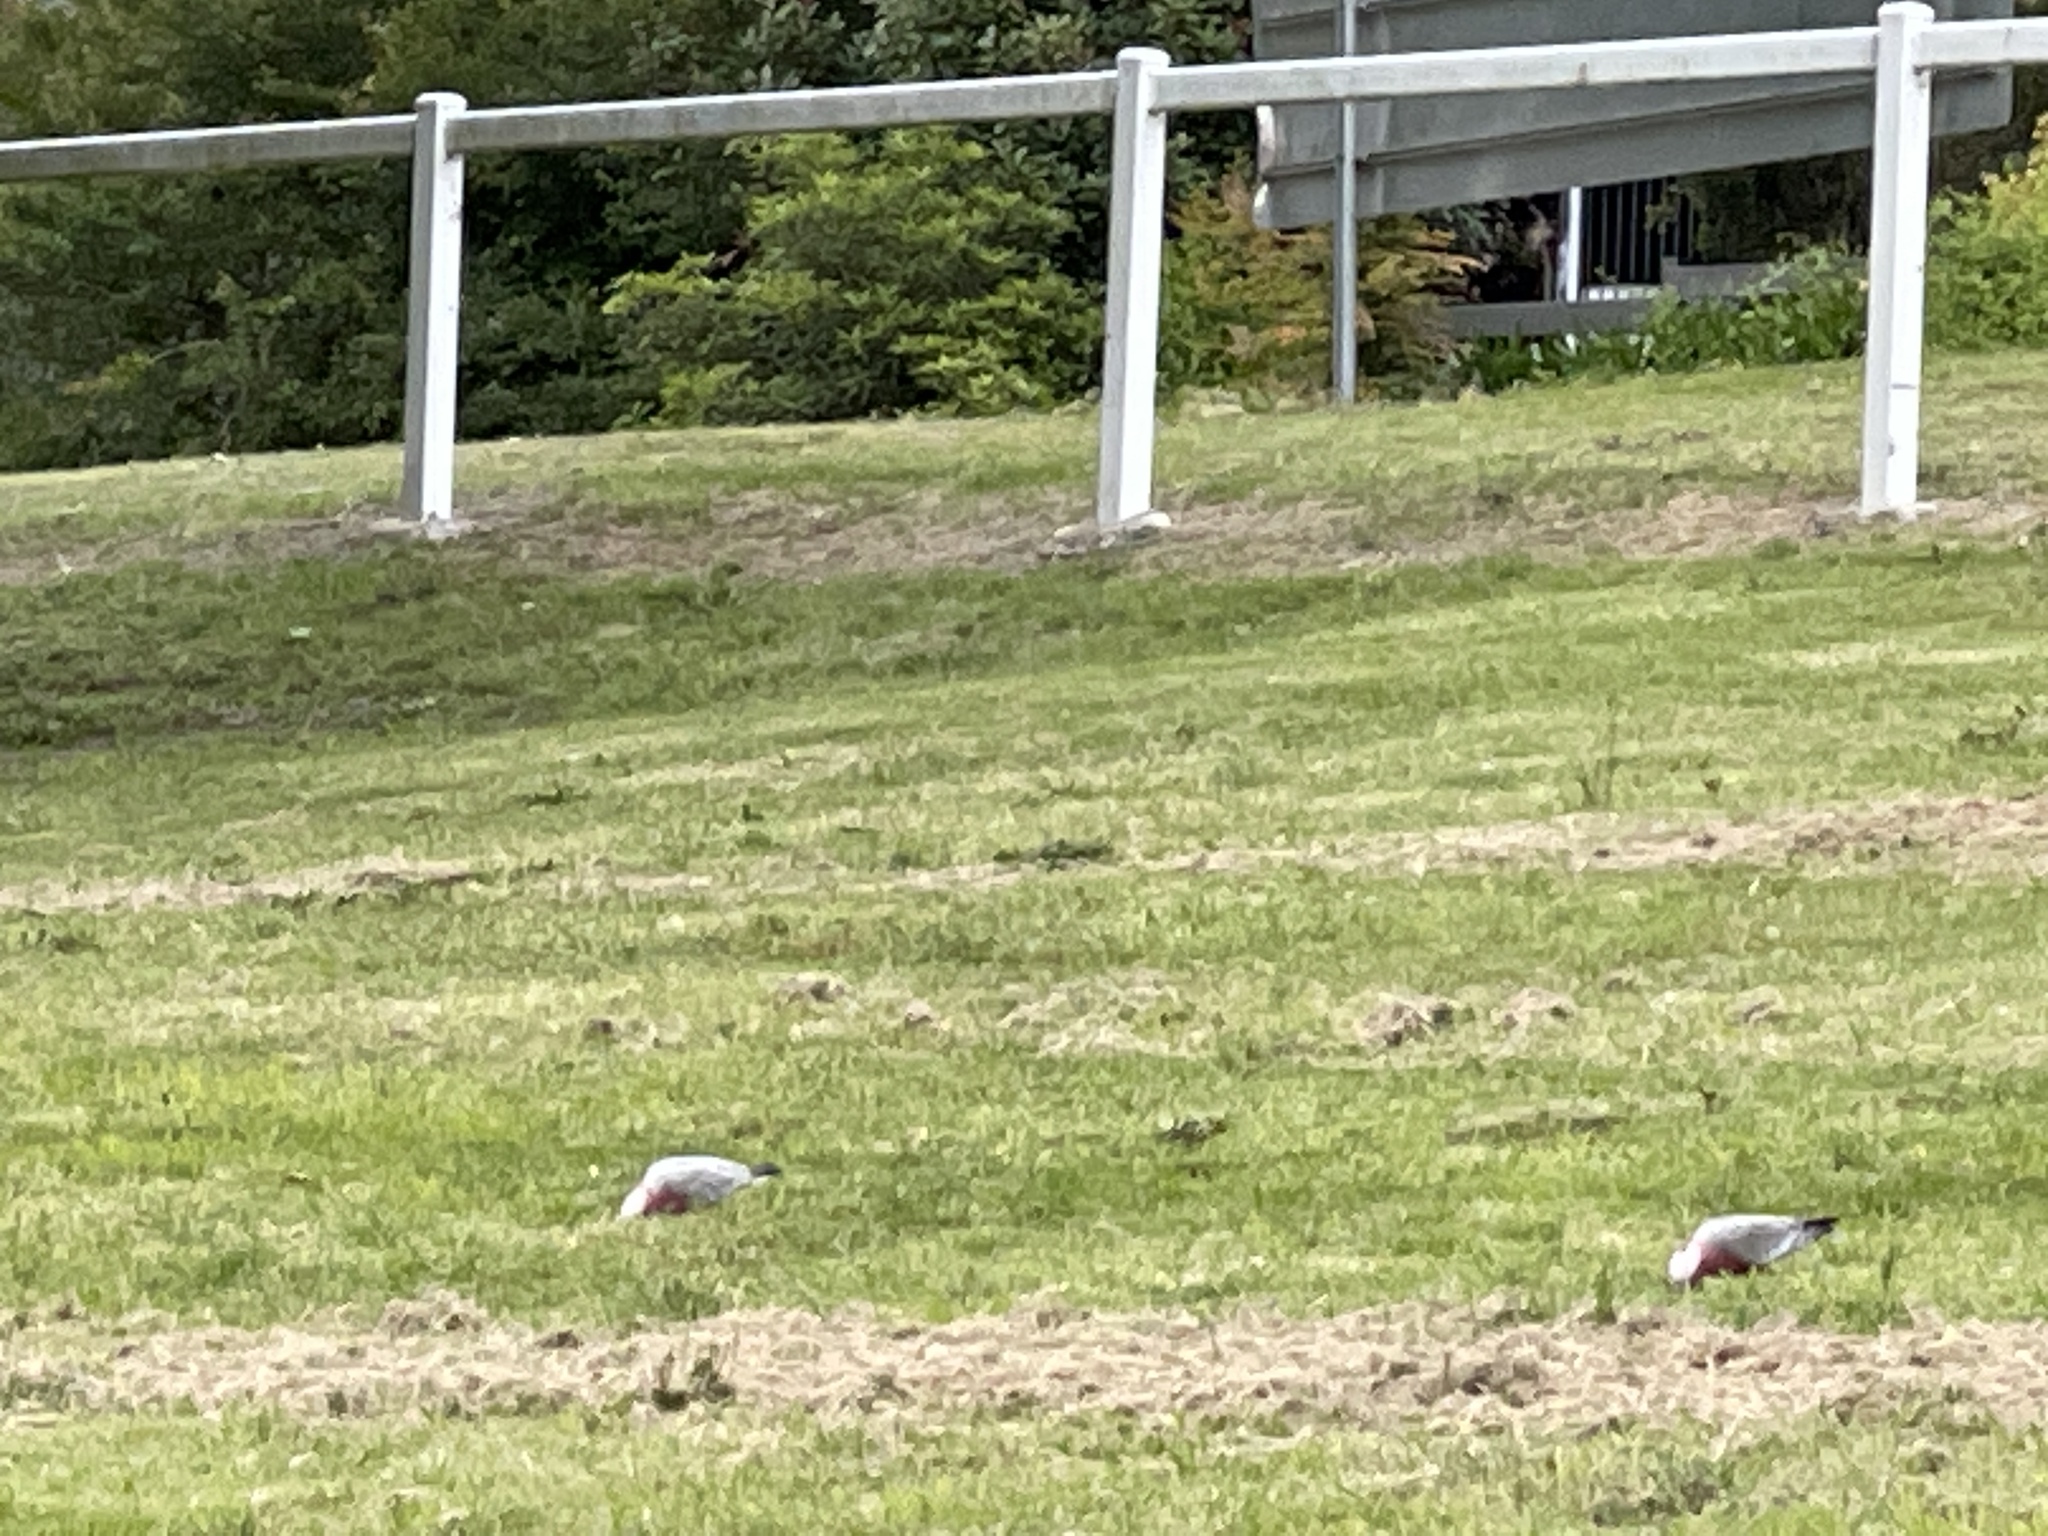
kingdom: Animalia
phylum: Chordata
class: Aves
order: Psittaciformes
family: Psittacidae
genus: Eolophus
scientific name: Eolophus roseicapilla
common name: Galah
